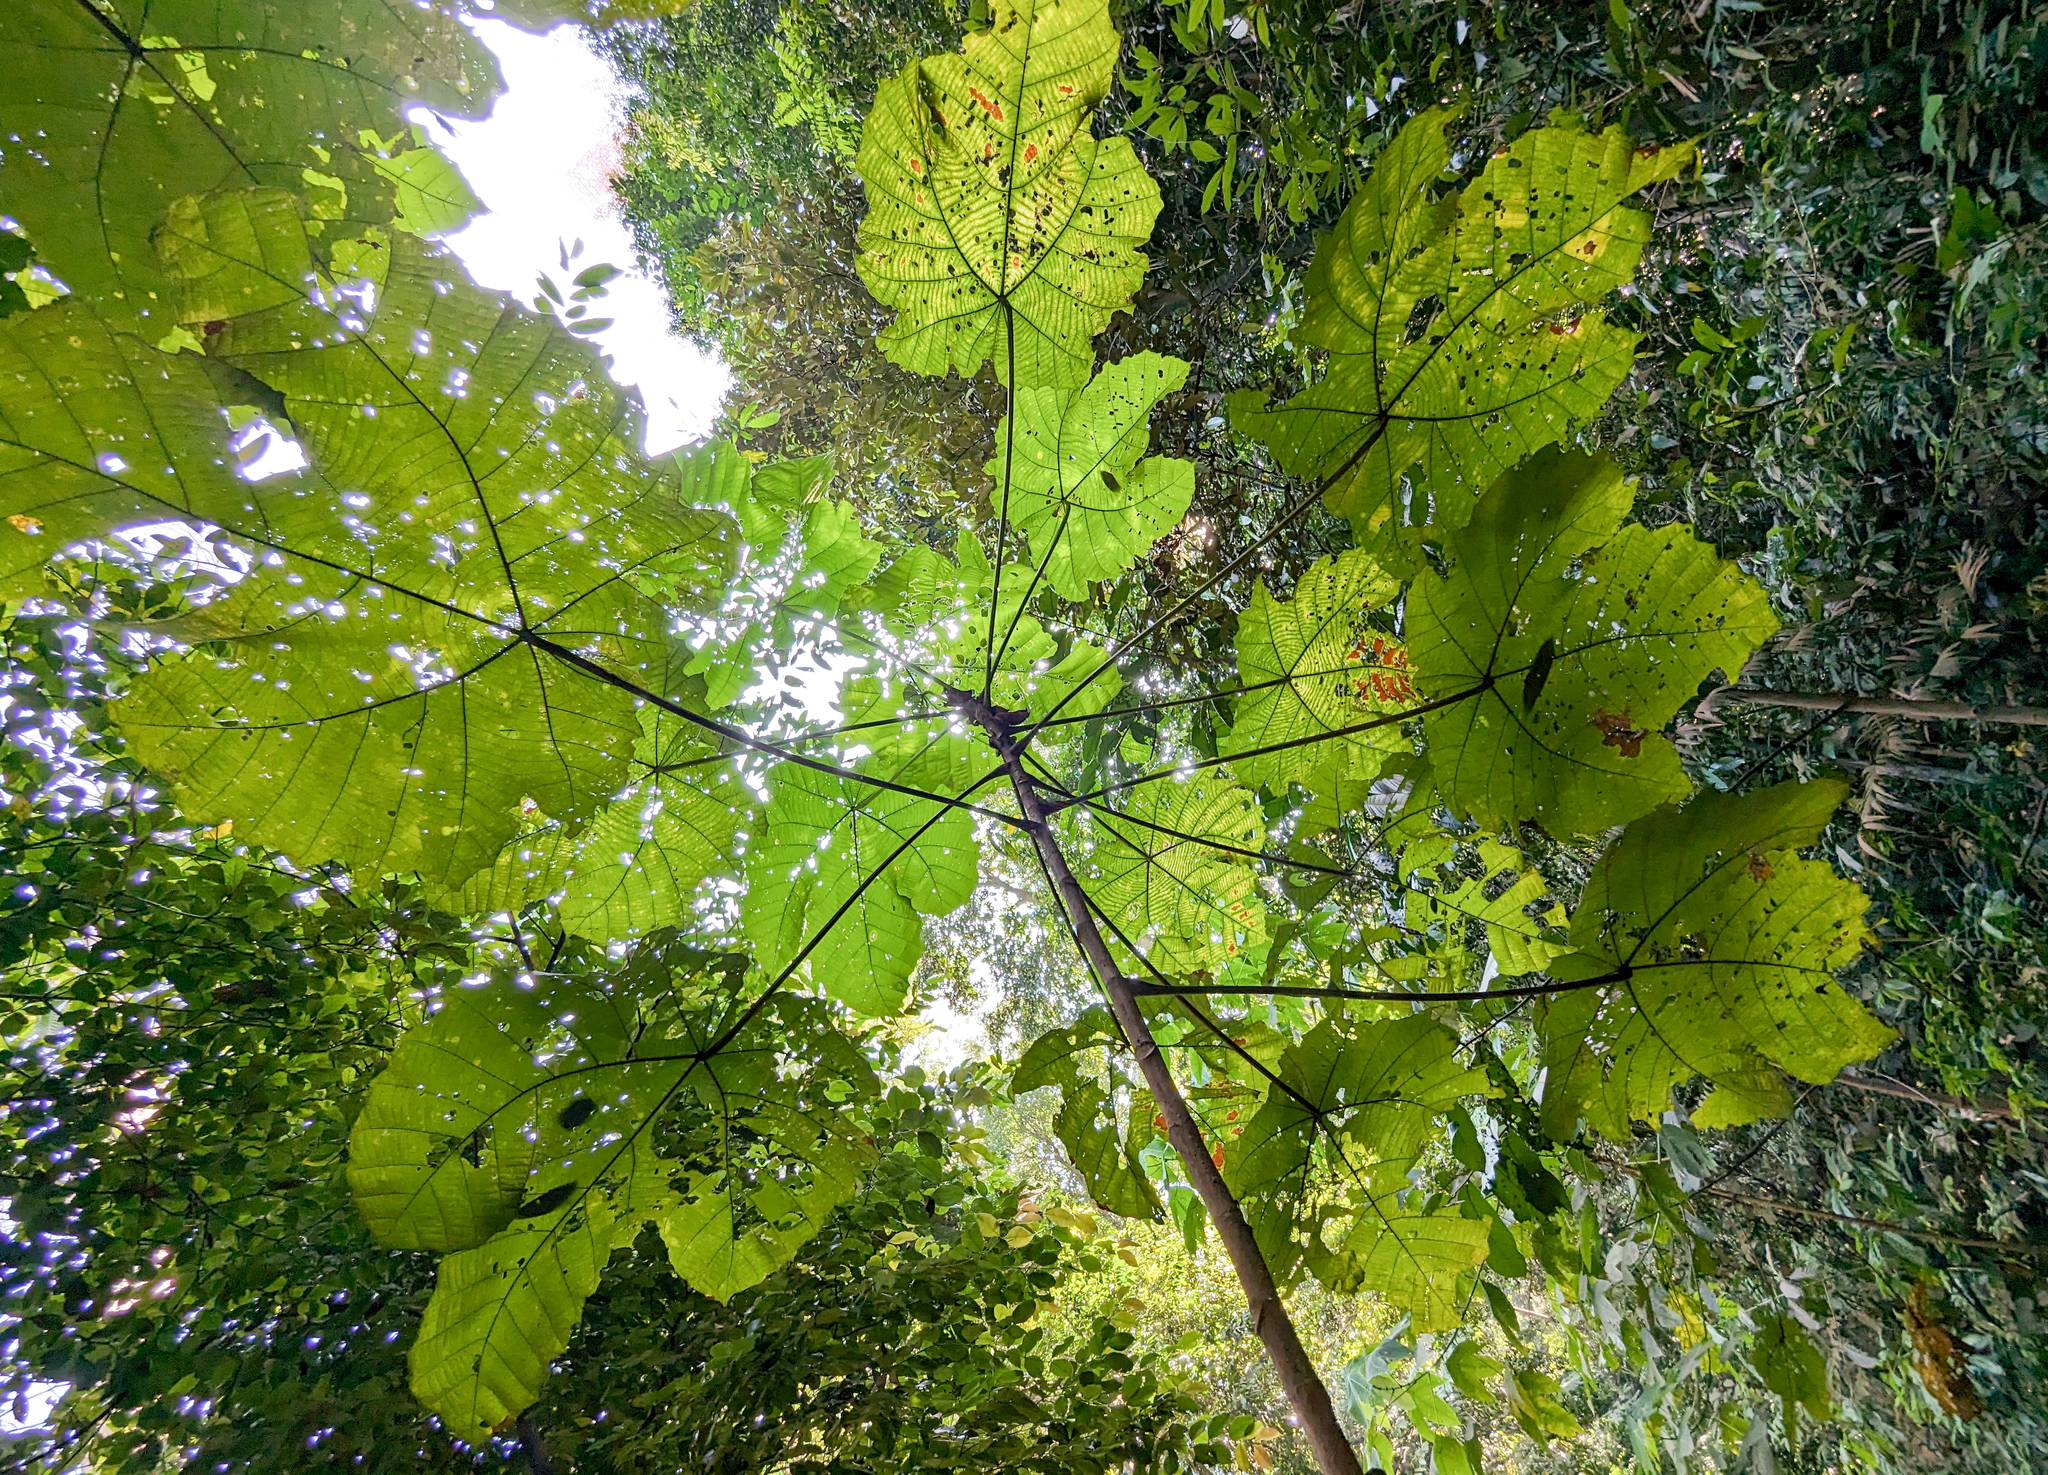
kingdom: Plantae
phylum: Tracheophyta
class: Magnoliopsida
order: Malpighiales
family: Euphorbiaceae
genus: Macaranga
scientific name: Macaranga gigantea
